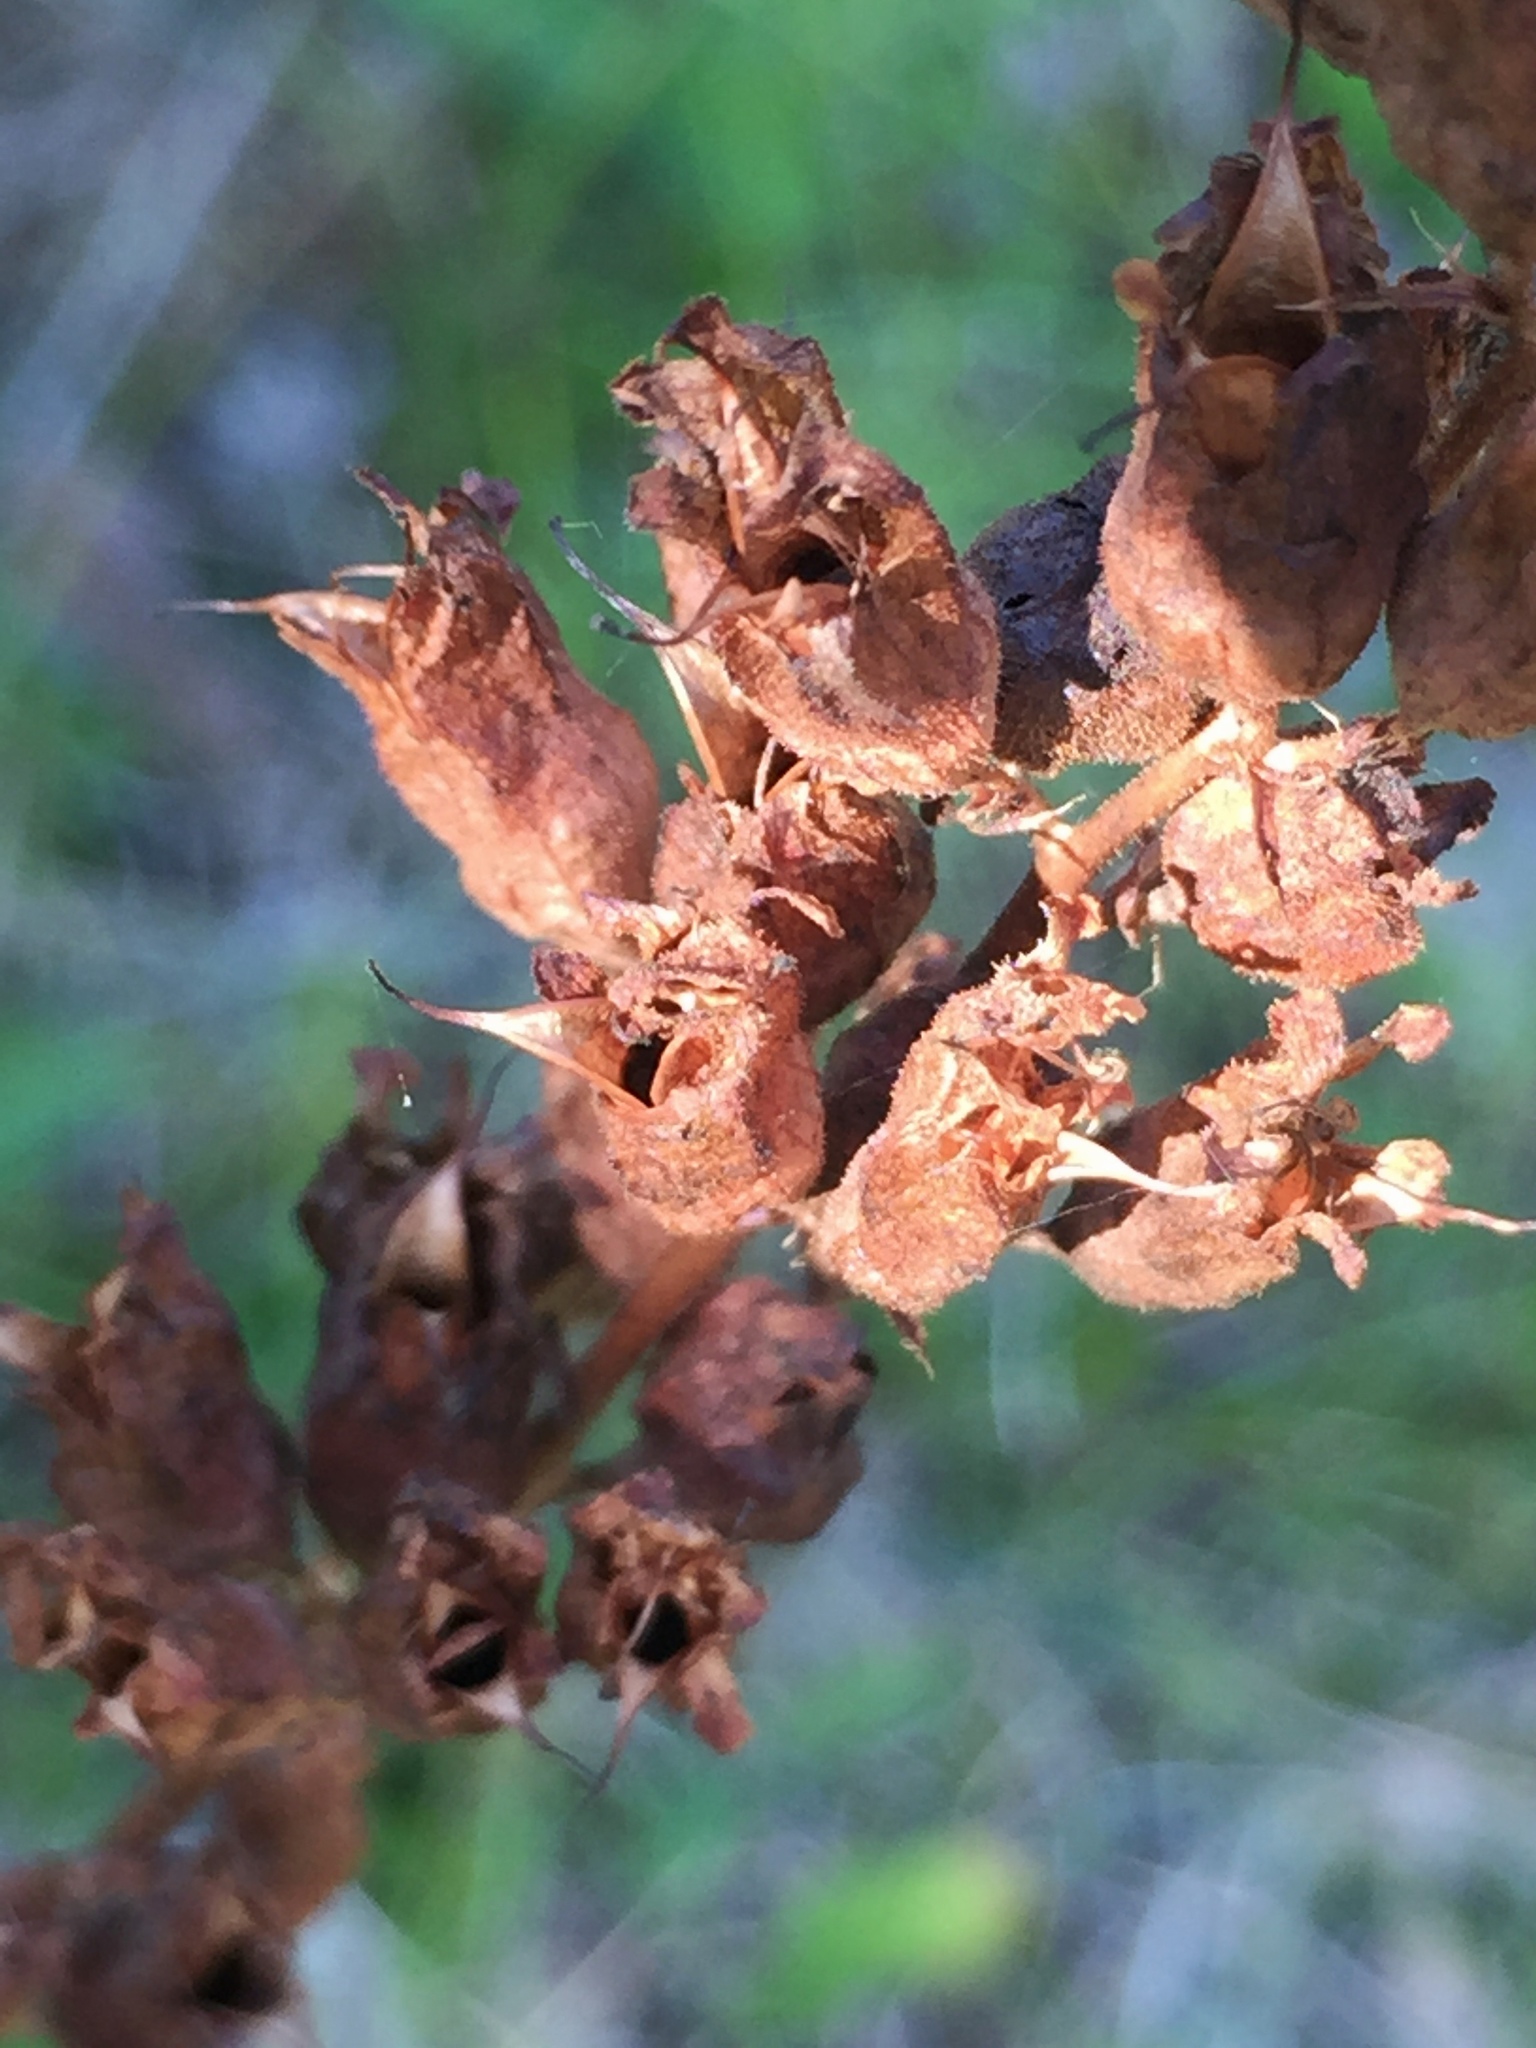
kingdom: Plantae
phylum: Tracheophyta
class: Magnoliopsida
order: Saxifragales
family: Saxifragaceae
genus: Heuchera
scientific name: Heuchera richardsonii
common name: Richardson's alumroot
